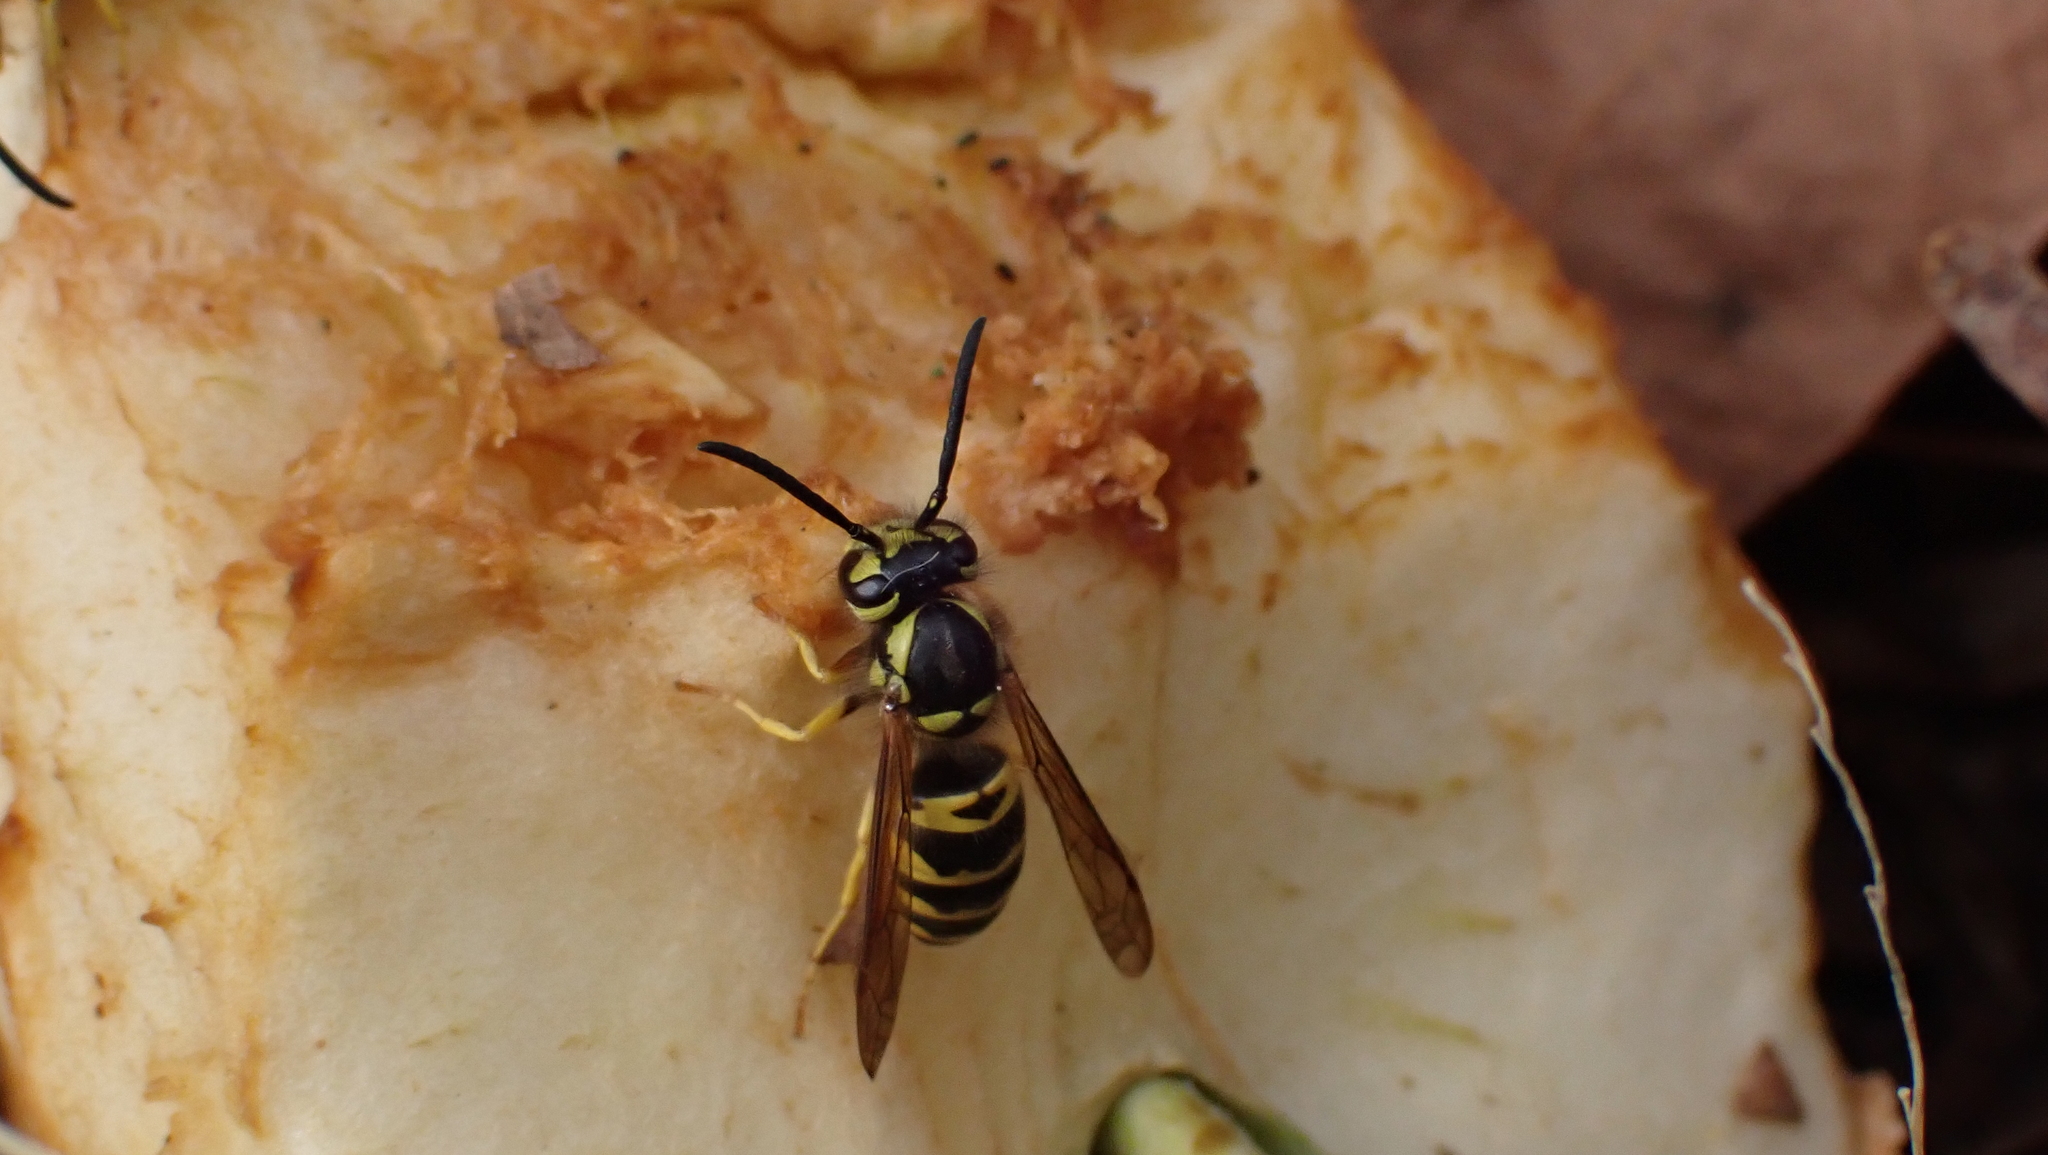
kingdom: Animalia
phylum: Arthropoda
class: Insecta
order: Hymenoptera
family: Vespidae
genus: Vespula
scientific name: Vespula maculifrons
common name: Eastern yellowjacket
